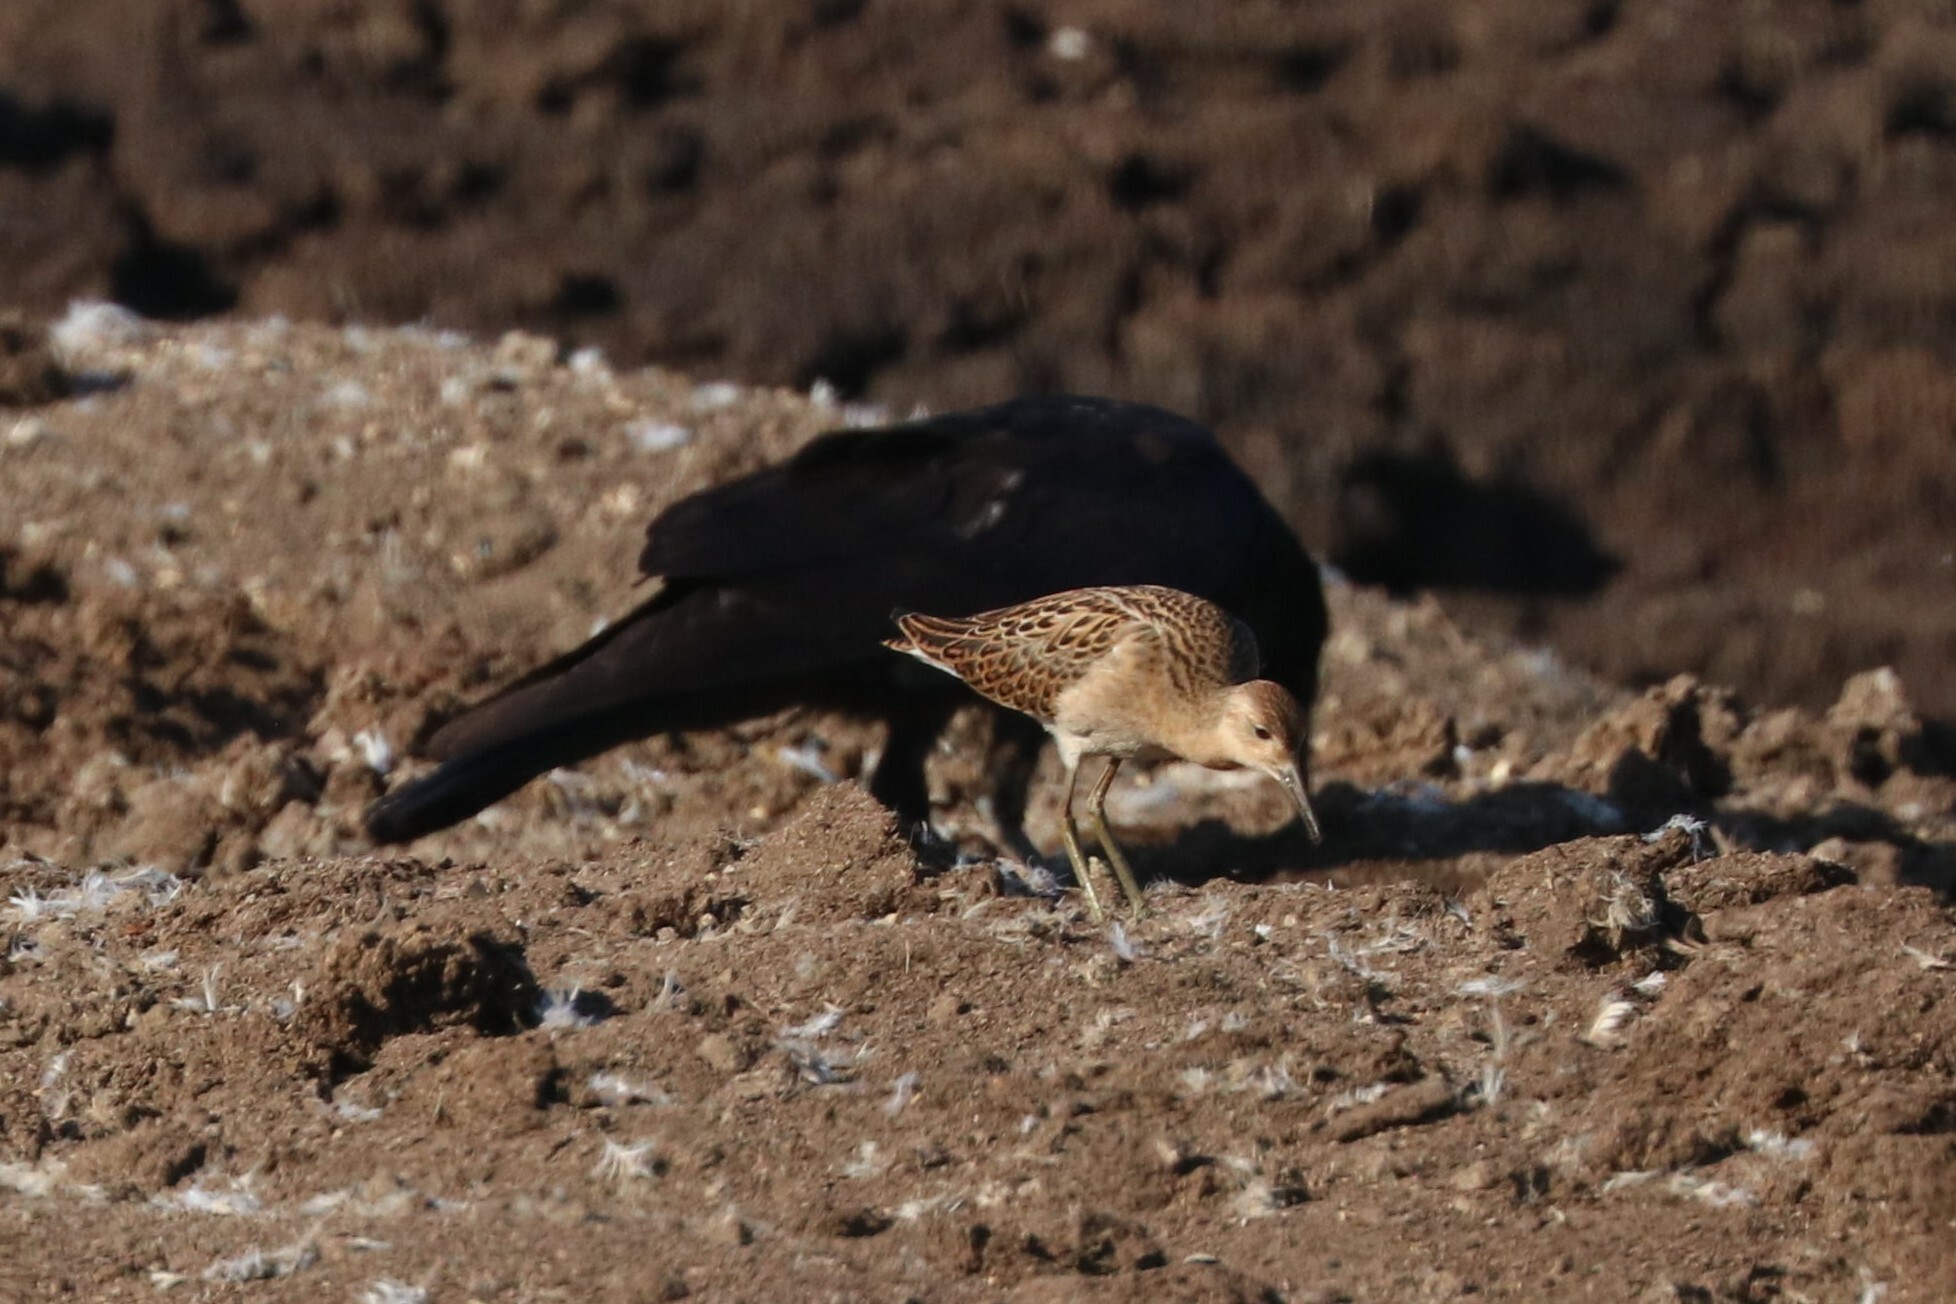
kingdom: Animalia
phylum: Chordata
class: Aves
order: Charadriiformes
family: Scolopacidae
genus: Calidris
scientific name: Calidris pugnax
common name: Ruff
